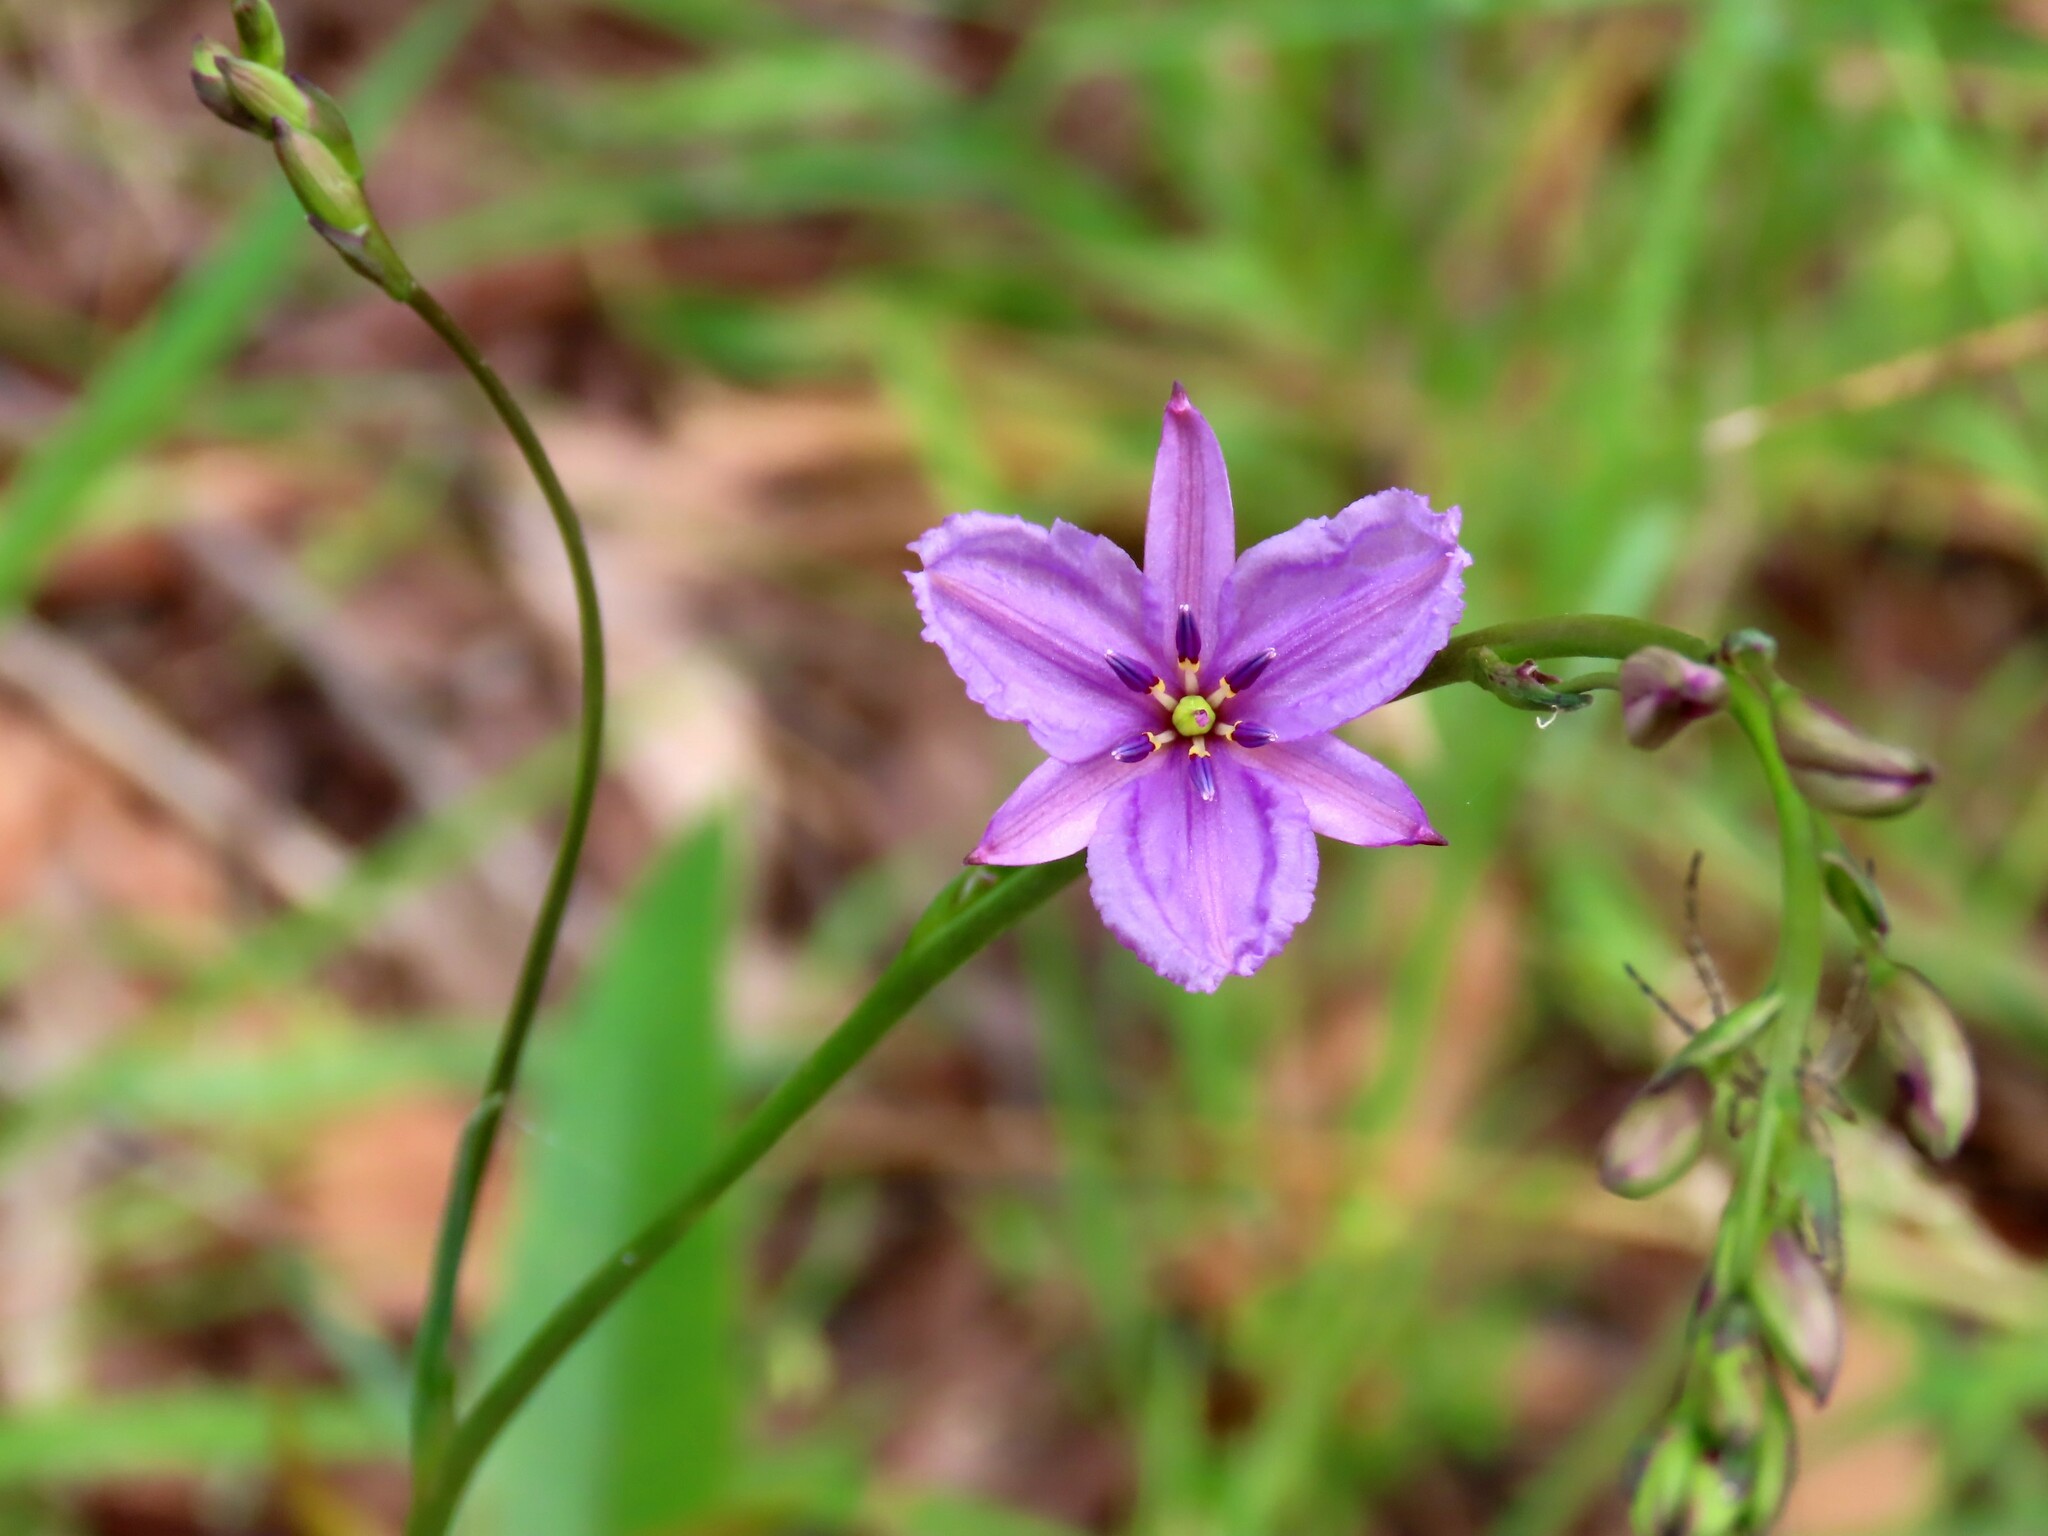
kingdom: Plantae
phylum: Tracheophyta
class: Liliopsida
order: Asparagales
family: Asparagaceae
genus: Arthropodium
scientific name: Arthropodium strictum
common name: Chocolate-lily
